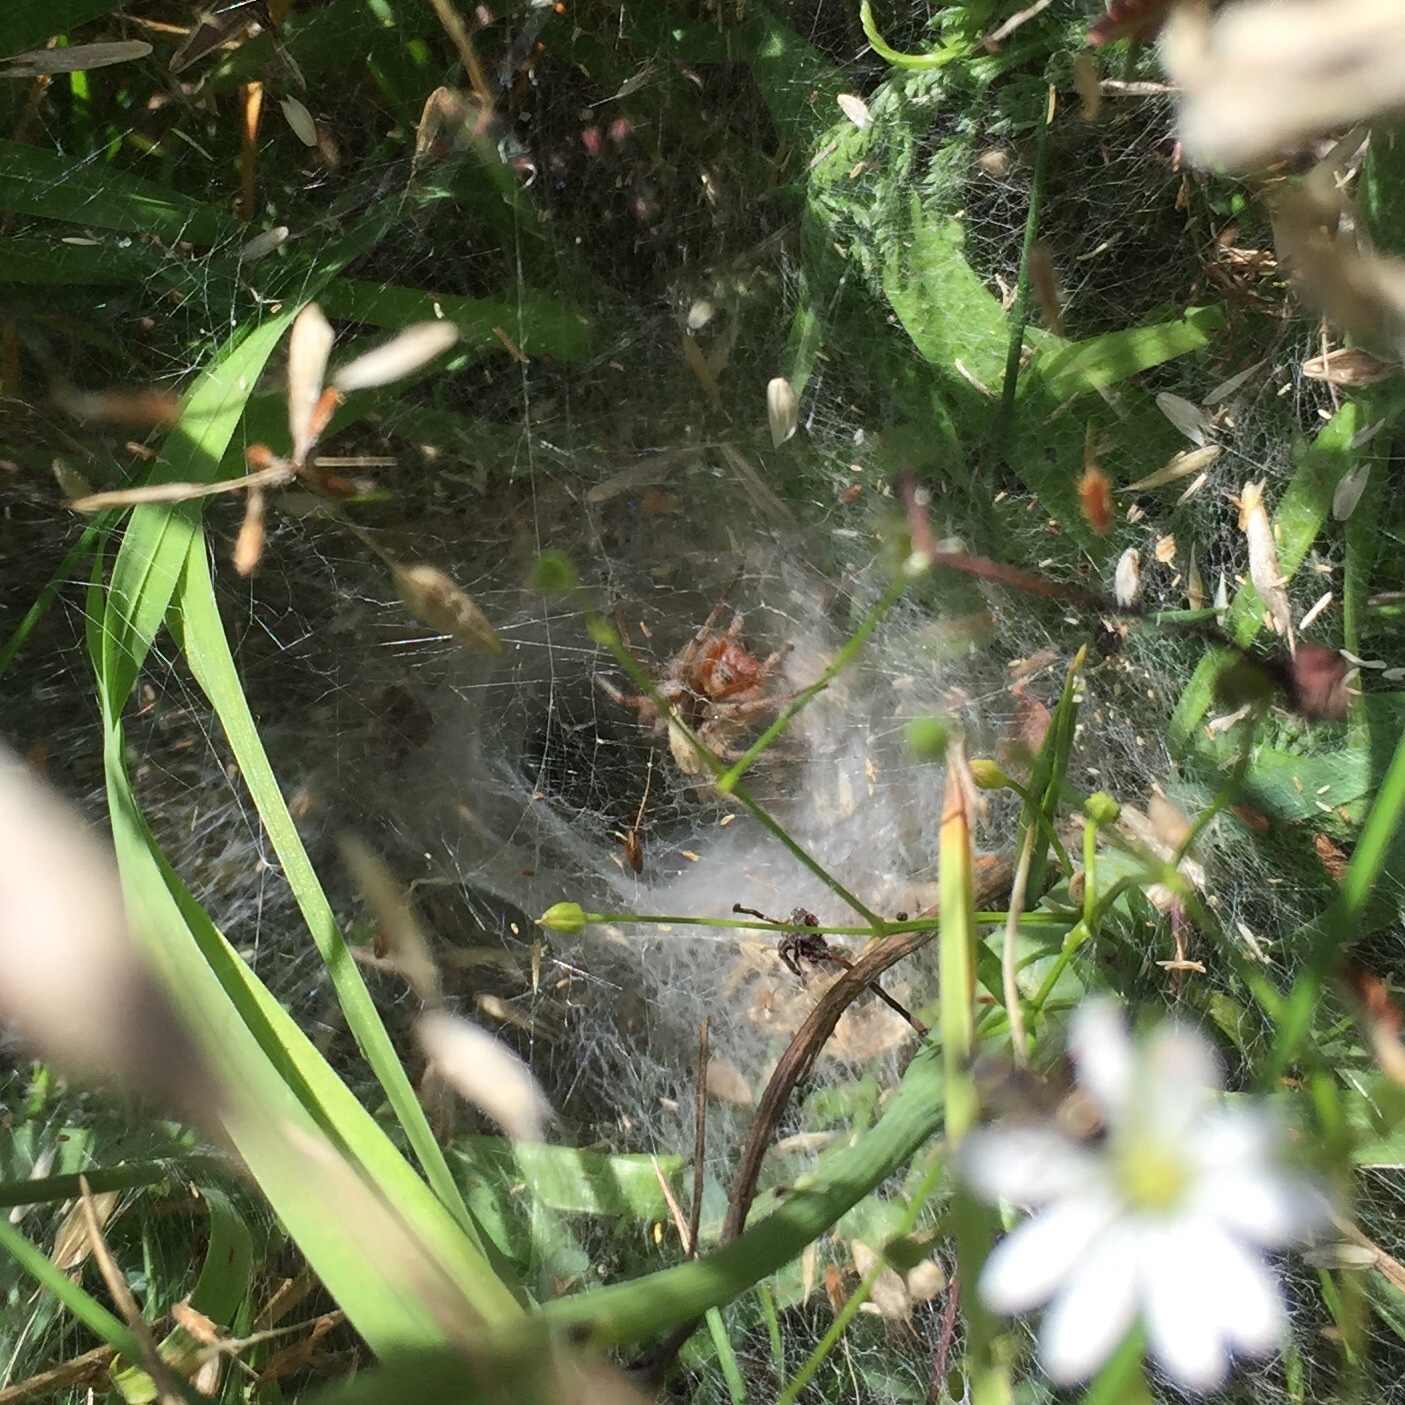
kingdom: Animalia
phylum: Arthropoda
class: Arachnida
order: Araneae
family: Agelenidae
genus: Agelena
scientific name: Agelena labyrinthica
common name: Labyrinth spider
